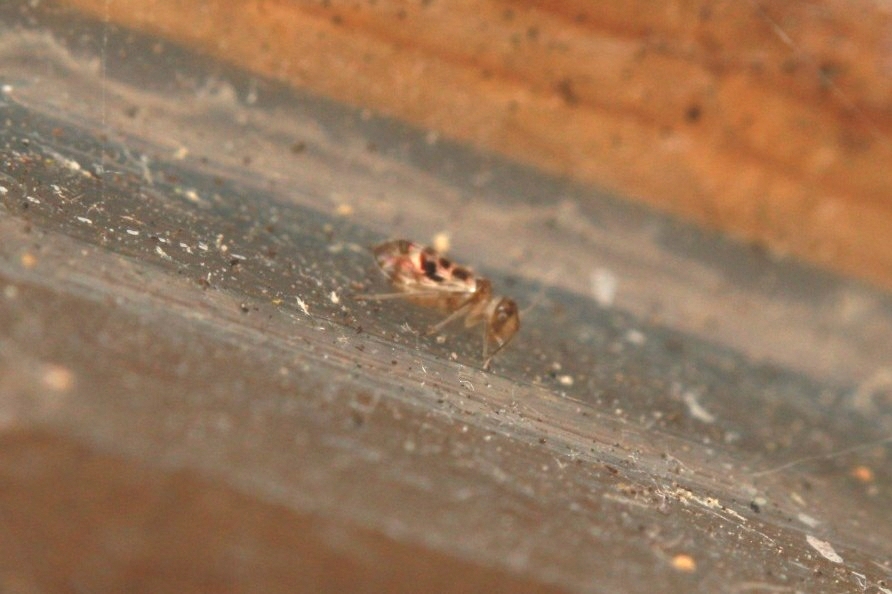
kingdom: Animalia
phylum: Arthropoda
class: Insecta
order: Psocodea
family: Stenopsocidae
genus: Graphopsocus
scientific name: Graphopsocus cruciatus
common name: Lizard bark louse
